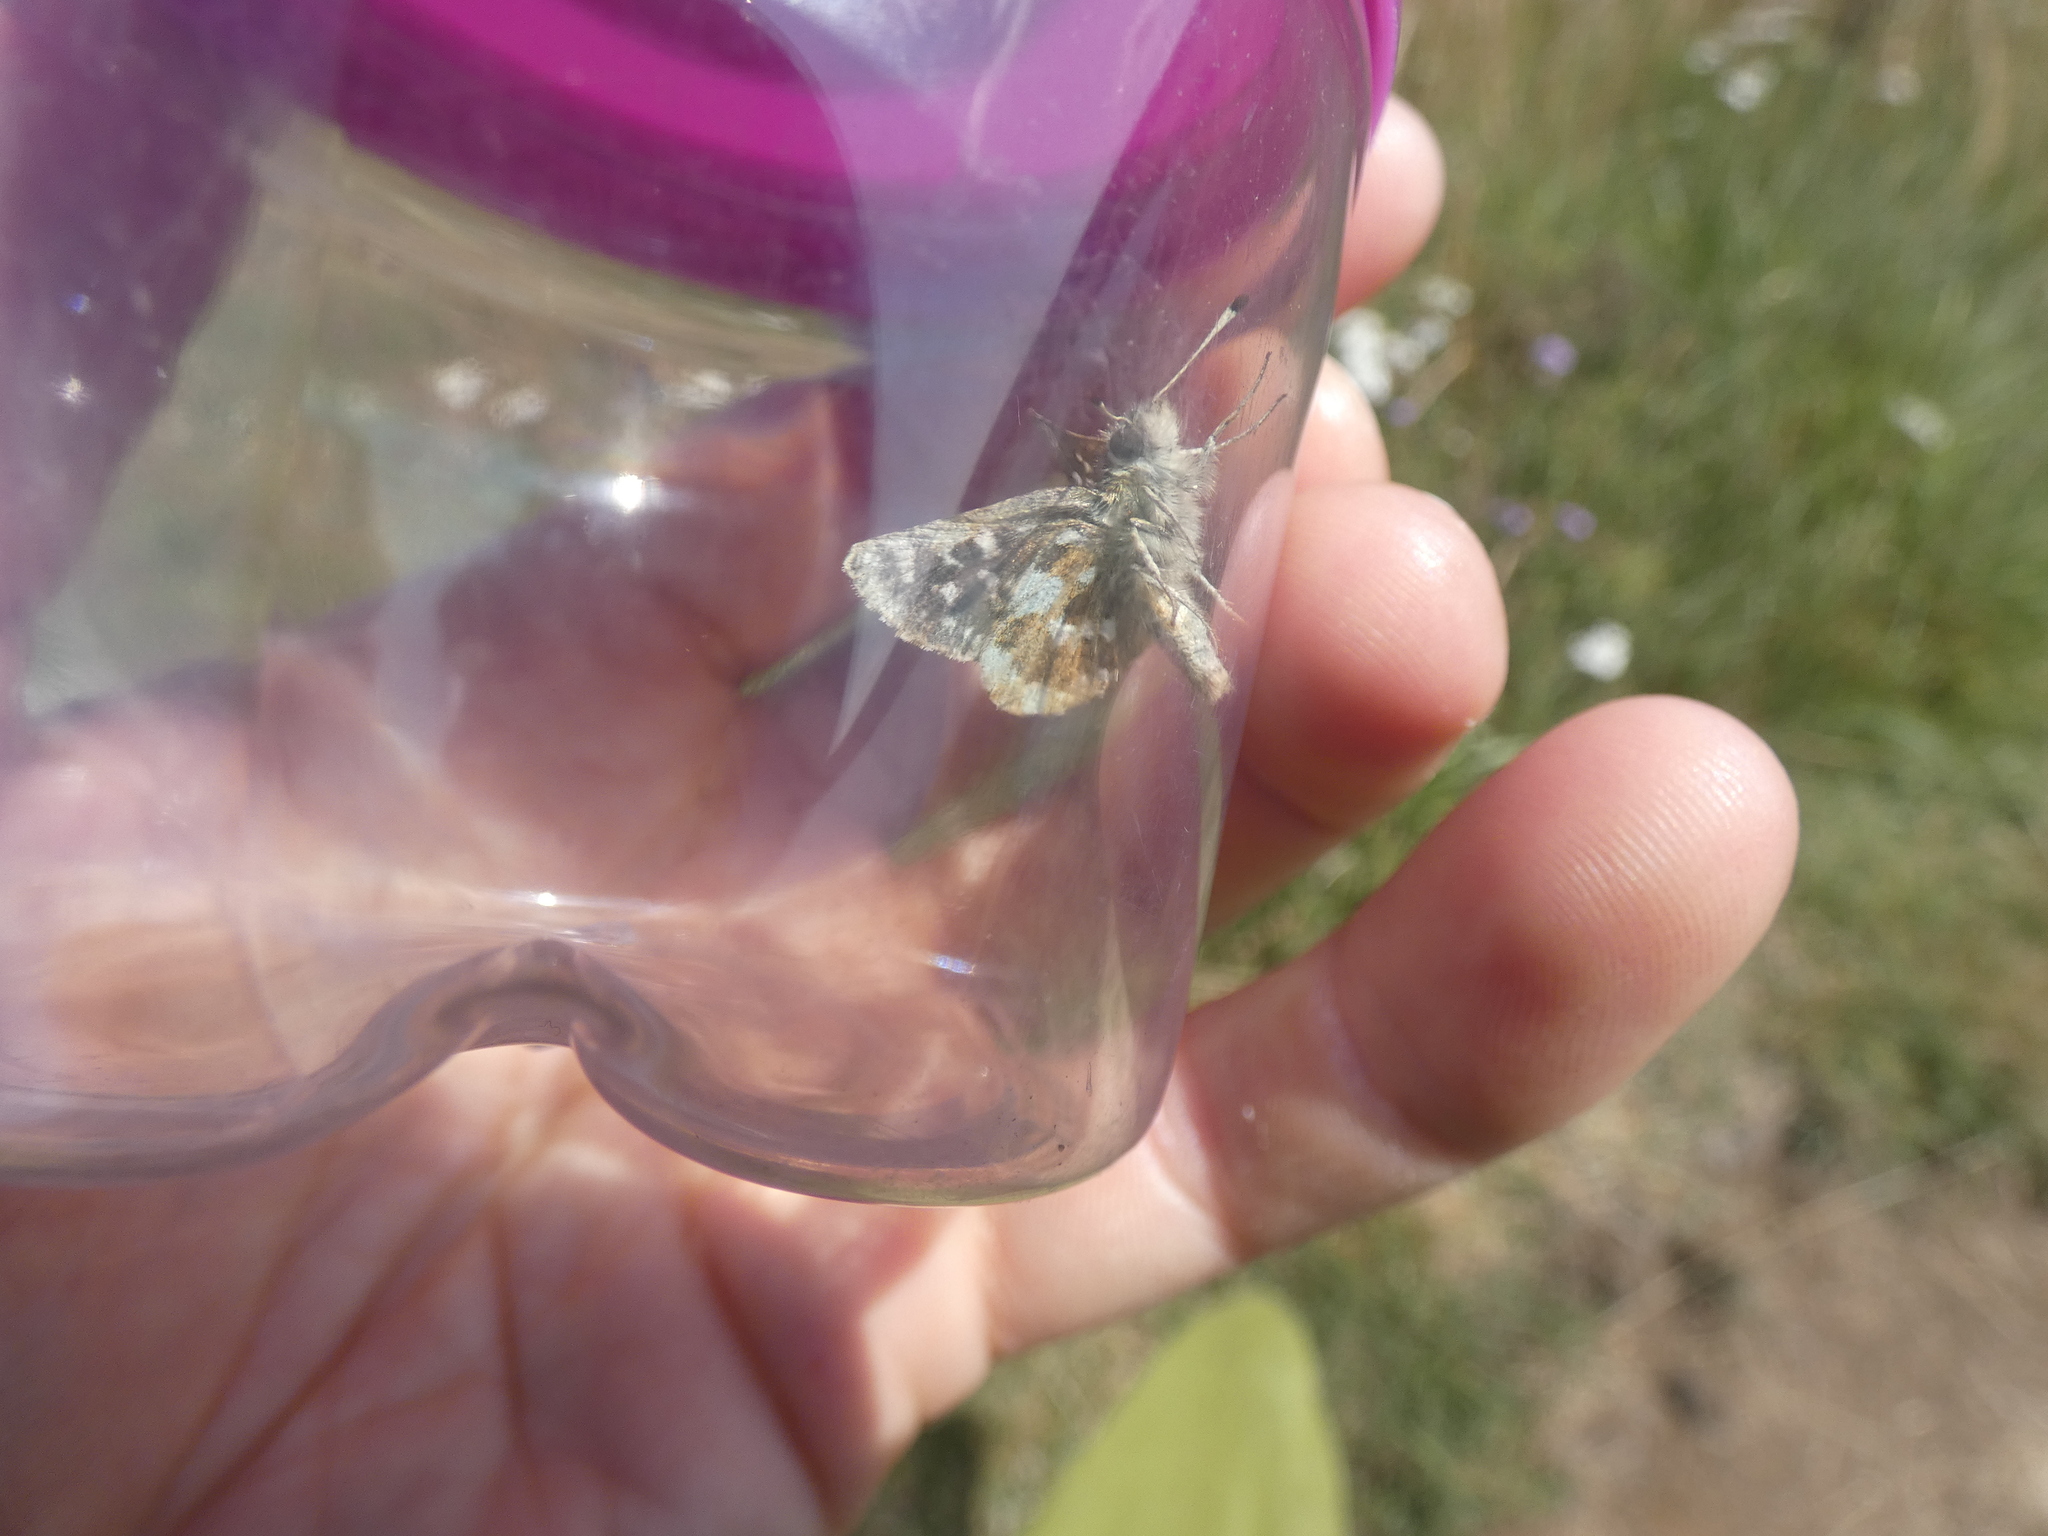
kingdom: Animalia
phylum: Arthropoda
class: Insecta
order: Lepidoptera
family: Hesperiidae
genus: Spialia
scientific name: Spialia sertorius
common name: Red underwing skipper
